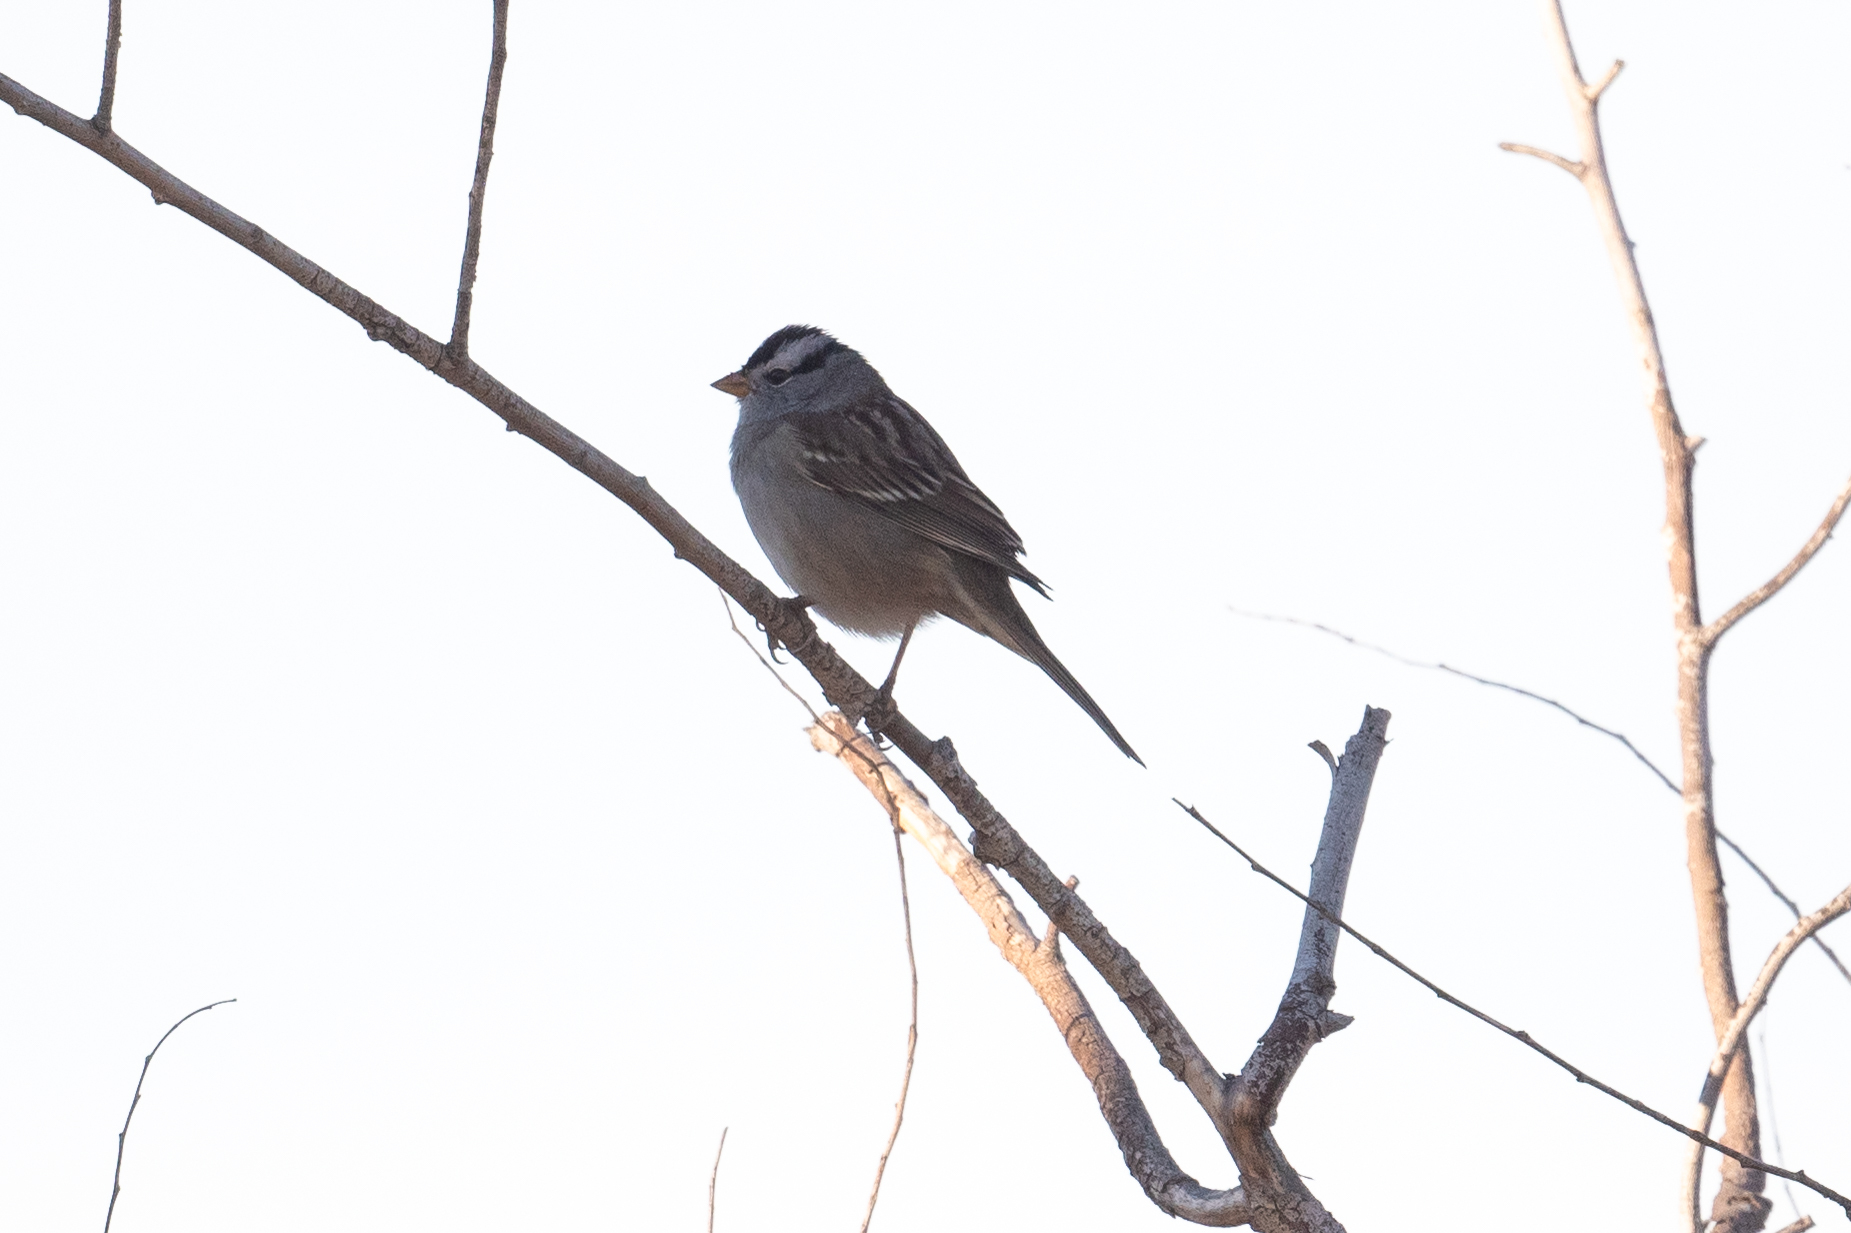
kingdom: Animalia
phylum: Chordata
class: Aves
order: Passeriformes
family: Passerellidae
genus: Zonotrichia
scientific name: Zonotrichia leucophrys
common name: White-crowned sparrow
